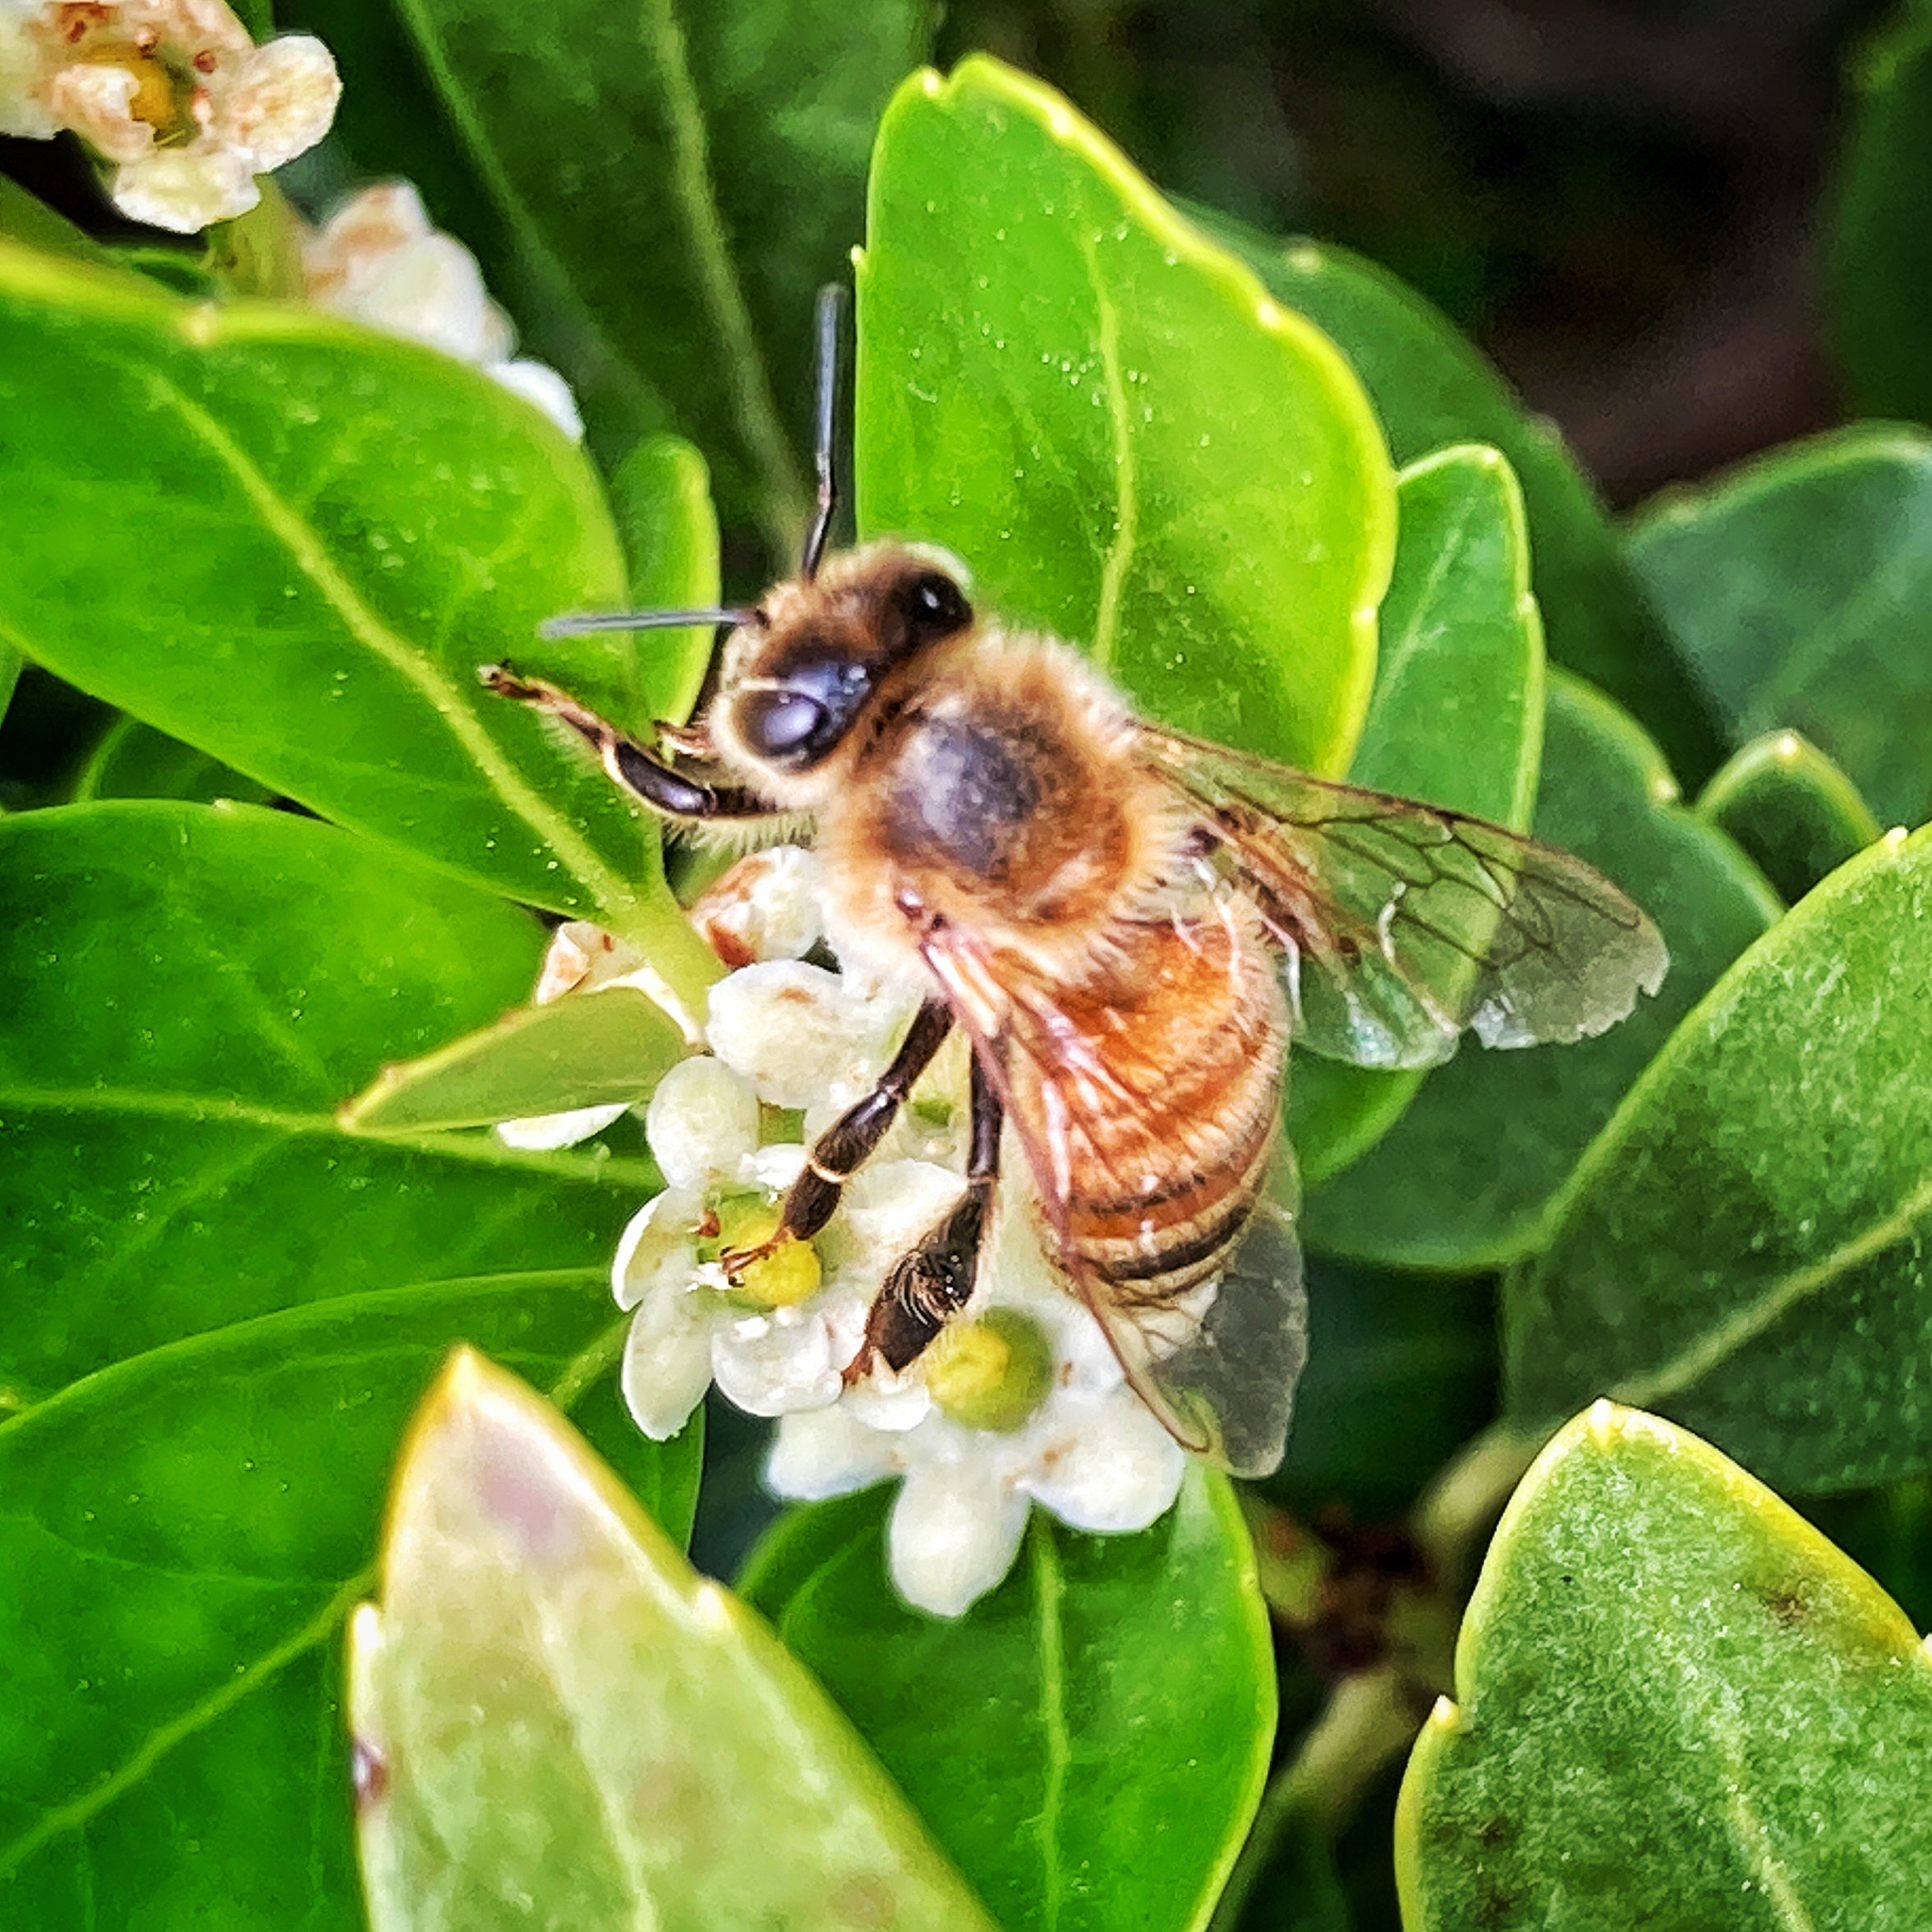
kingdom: Animalia
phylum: Arthropoda
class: Insecta
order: Hymenoptera
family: Apidae
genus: Apis
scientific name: Apis mellifera
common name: Honey bee
